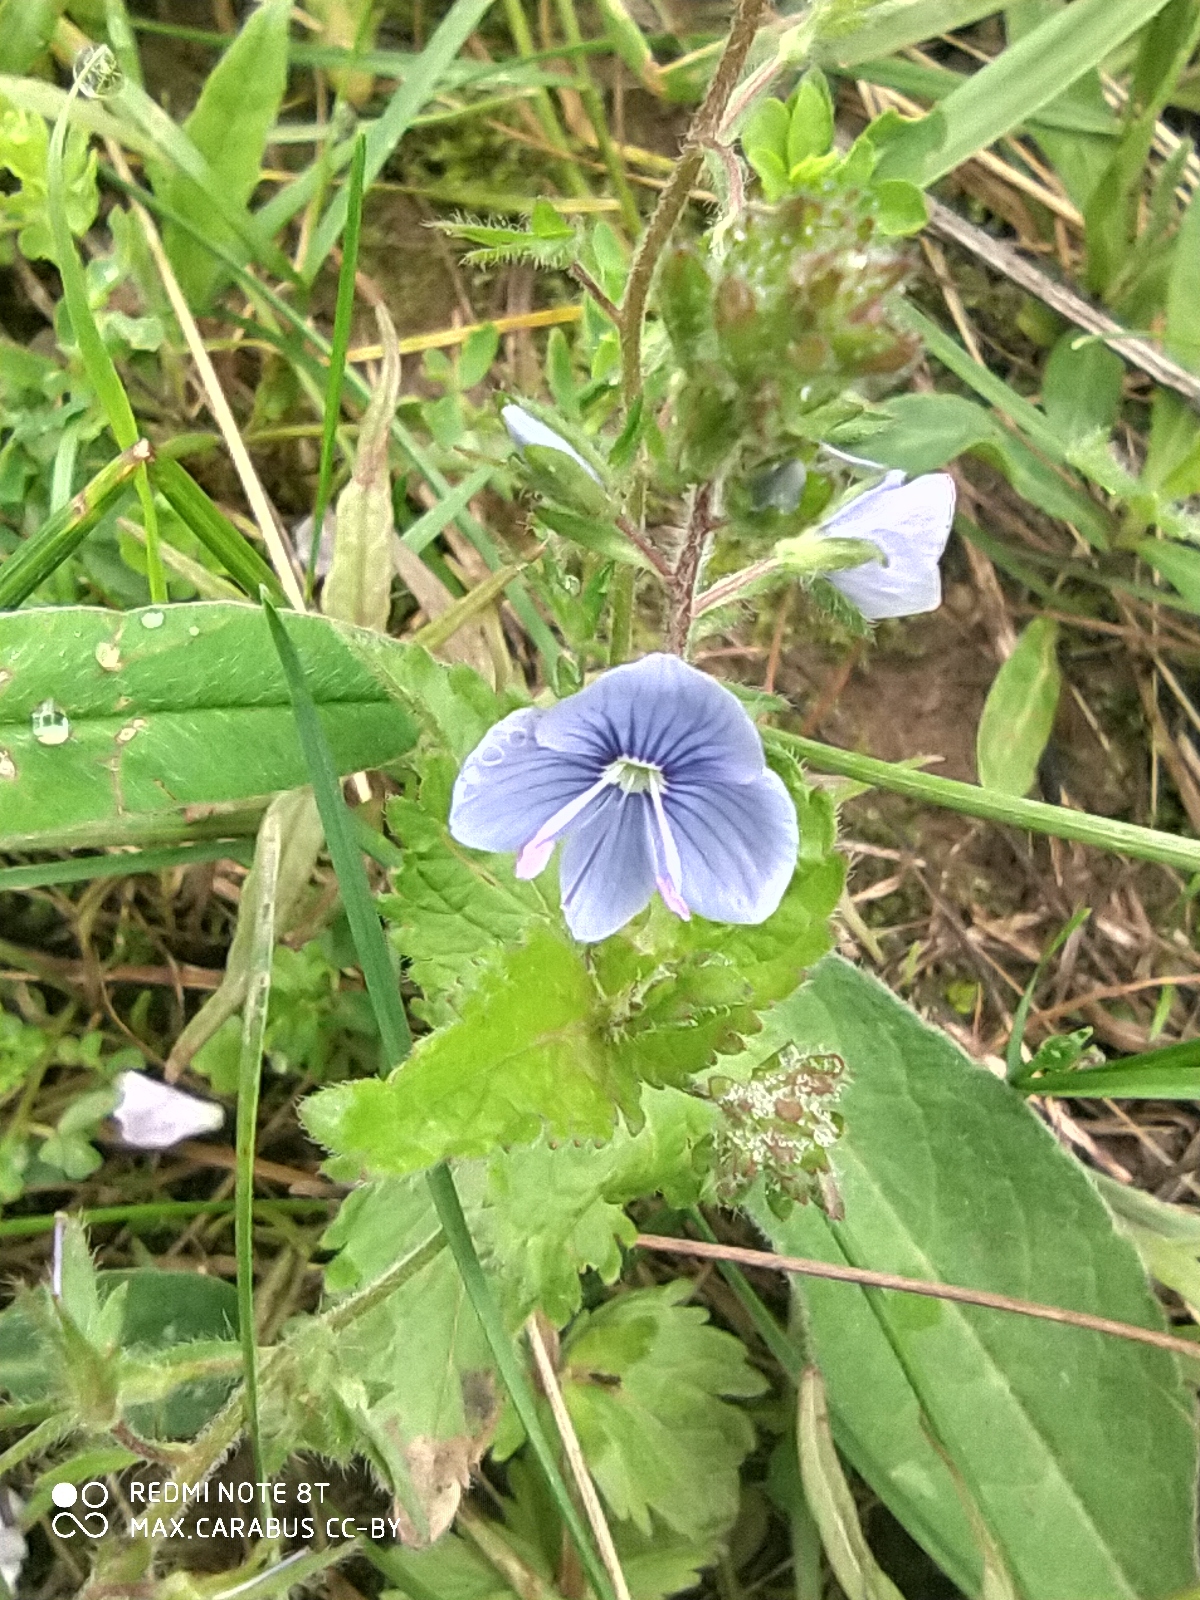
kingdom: Plantae
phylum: Tracheophyta
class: Magnoliopsida
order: Lamiales
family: Plantaginaceae
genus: Veronica
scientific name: Veronica chamaedrys
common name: Germander speedwell
